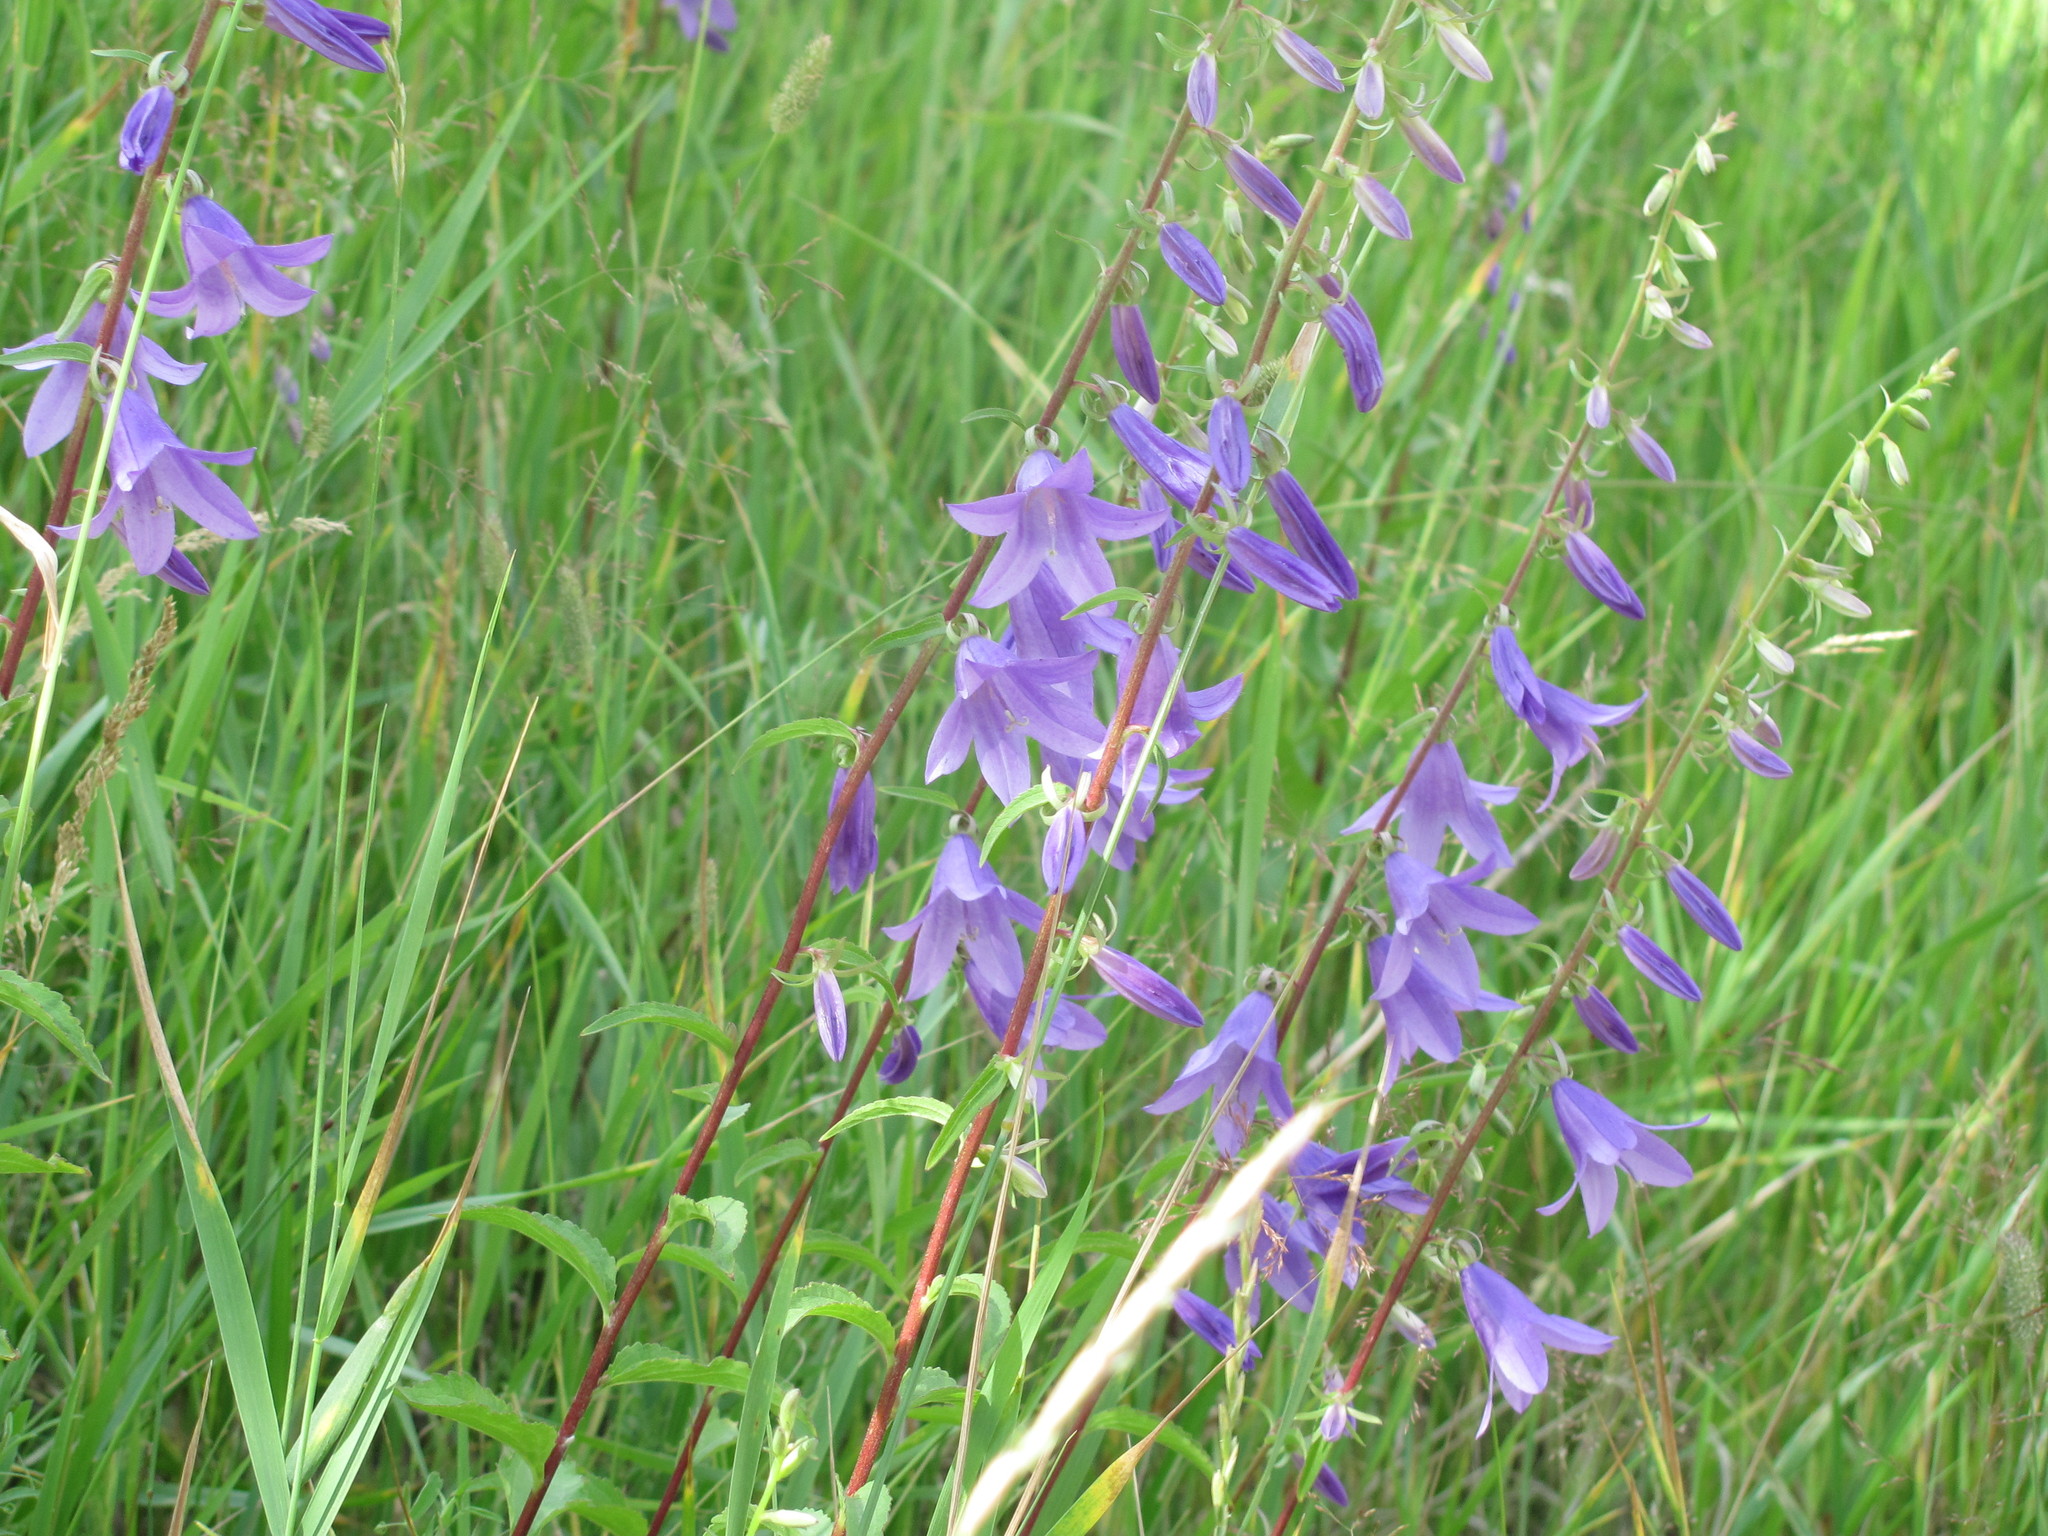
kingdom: Plantae
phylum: Tracheophyta
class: Magnoliopsida
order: Asterales
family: Campanulaceae
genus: Campanula
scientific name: Campanula rapunculoides
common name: Creeping bellflower
